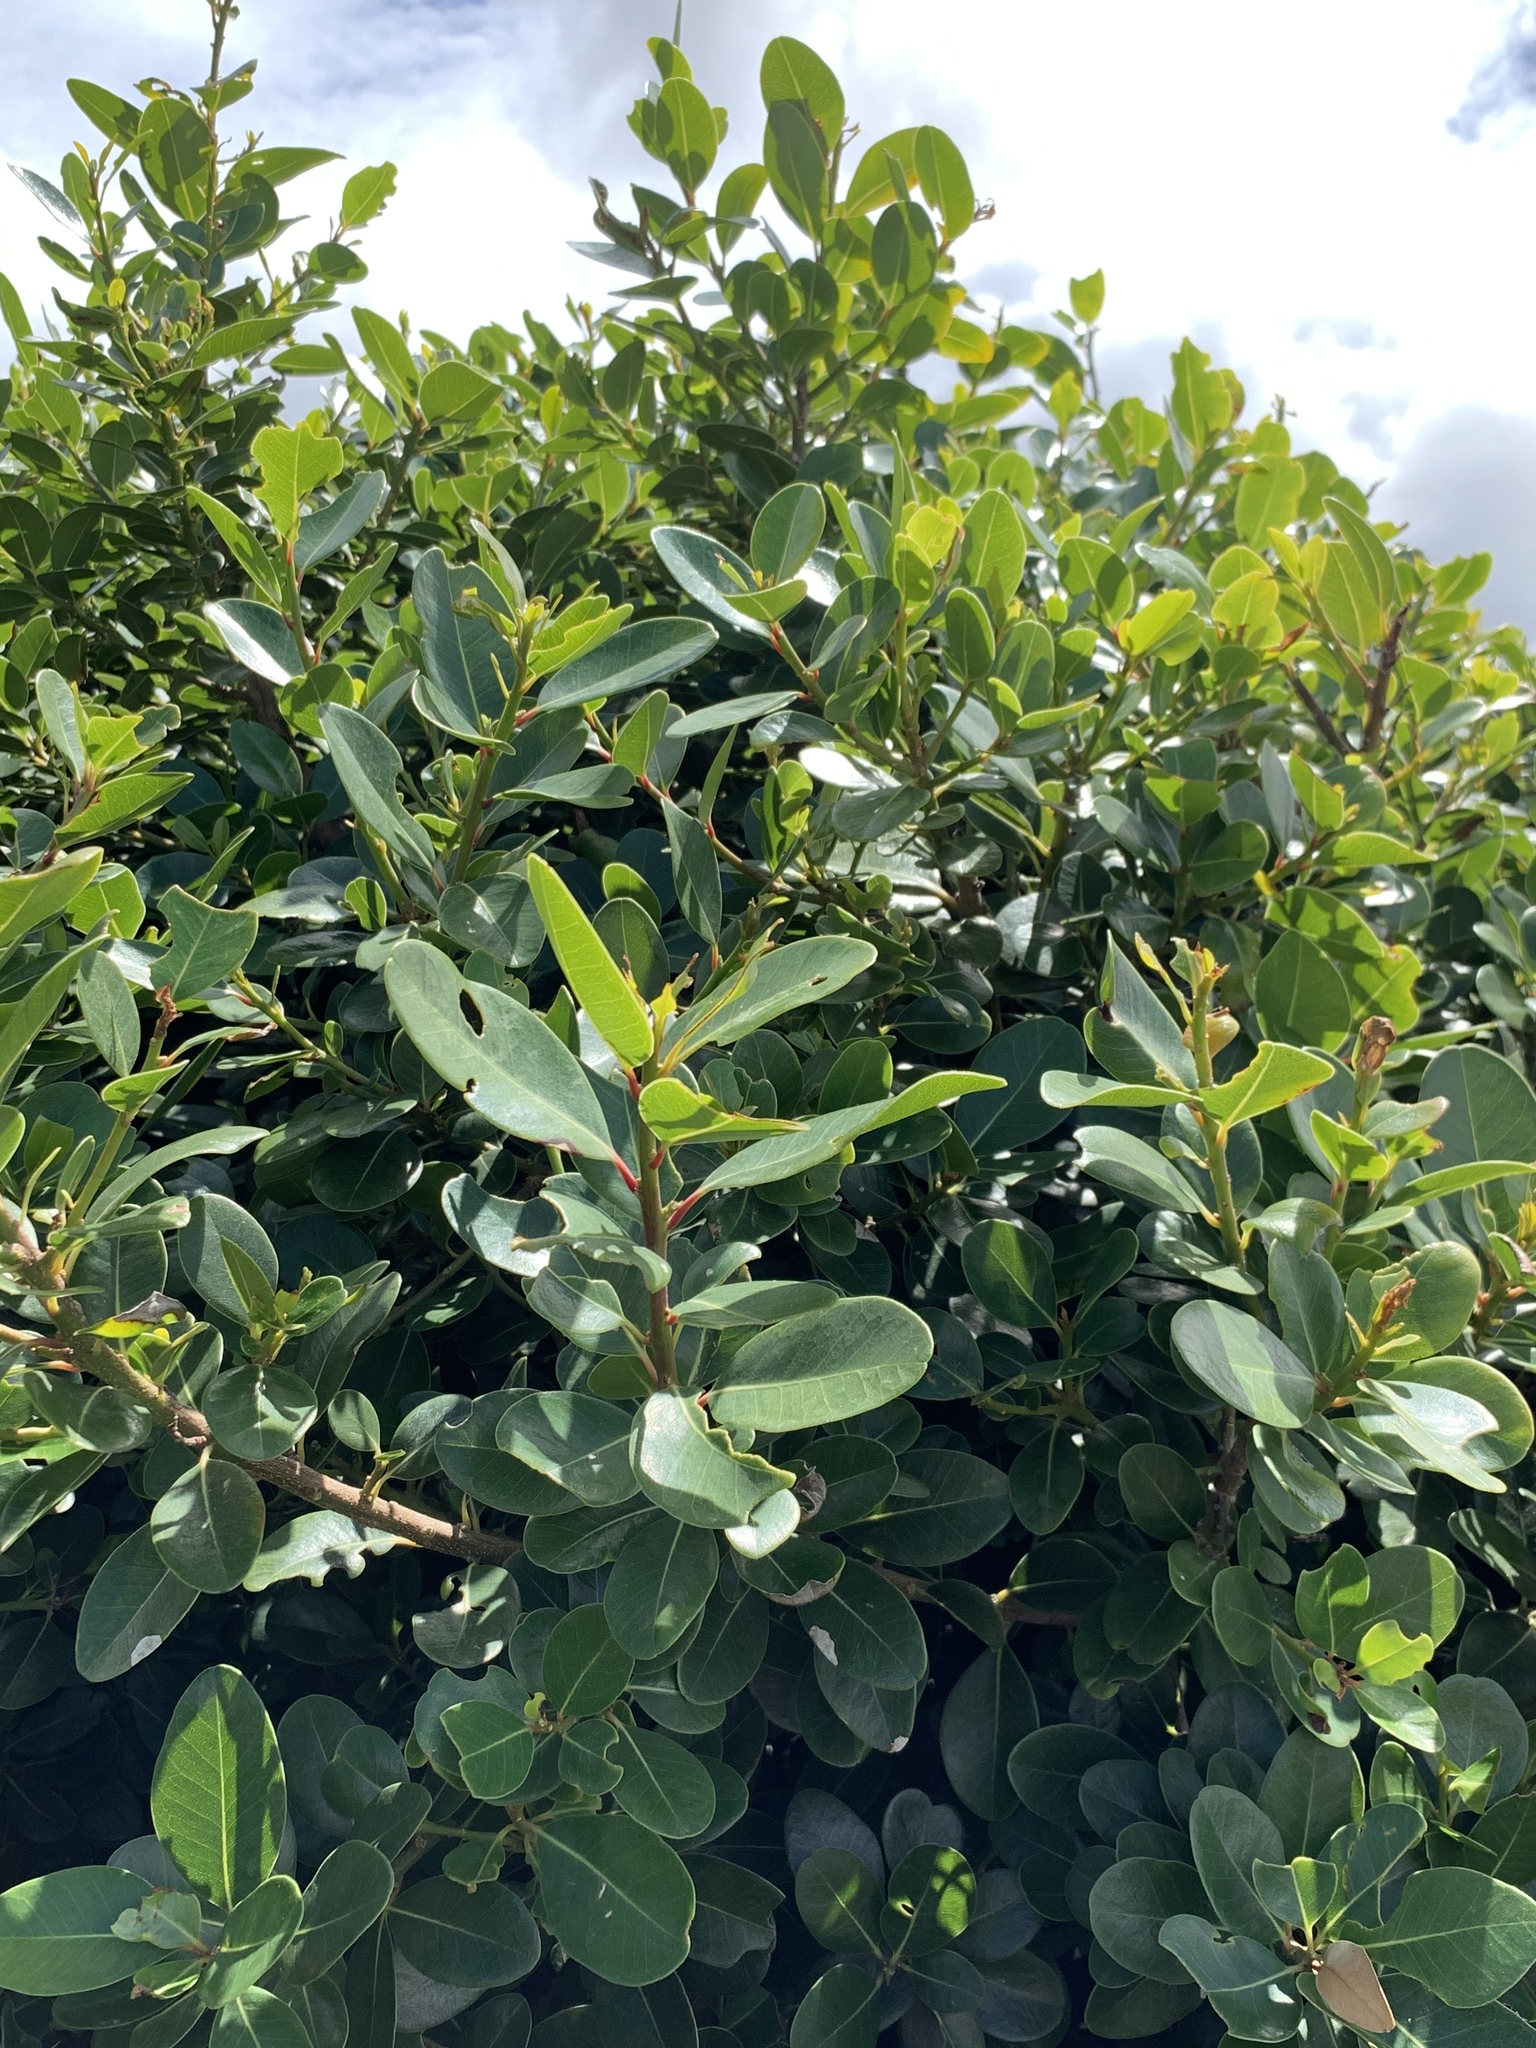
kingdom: Plantae
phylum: Tracheophyta
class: Magnoliopsida
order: Ericales
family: Sapotaceae
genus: Sideroxylon
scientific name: Sideroxylon inerme
